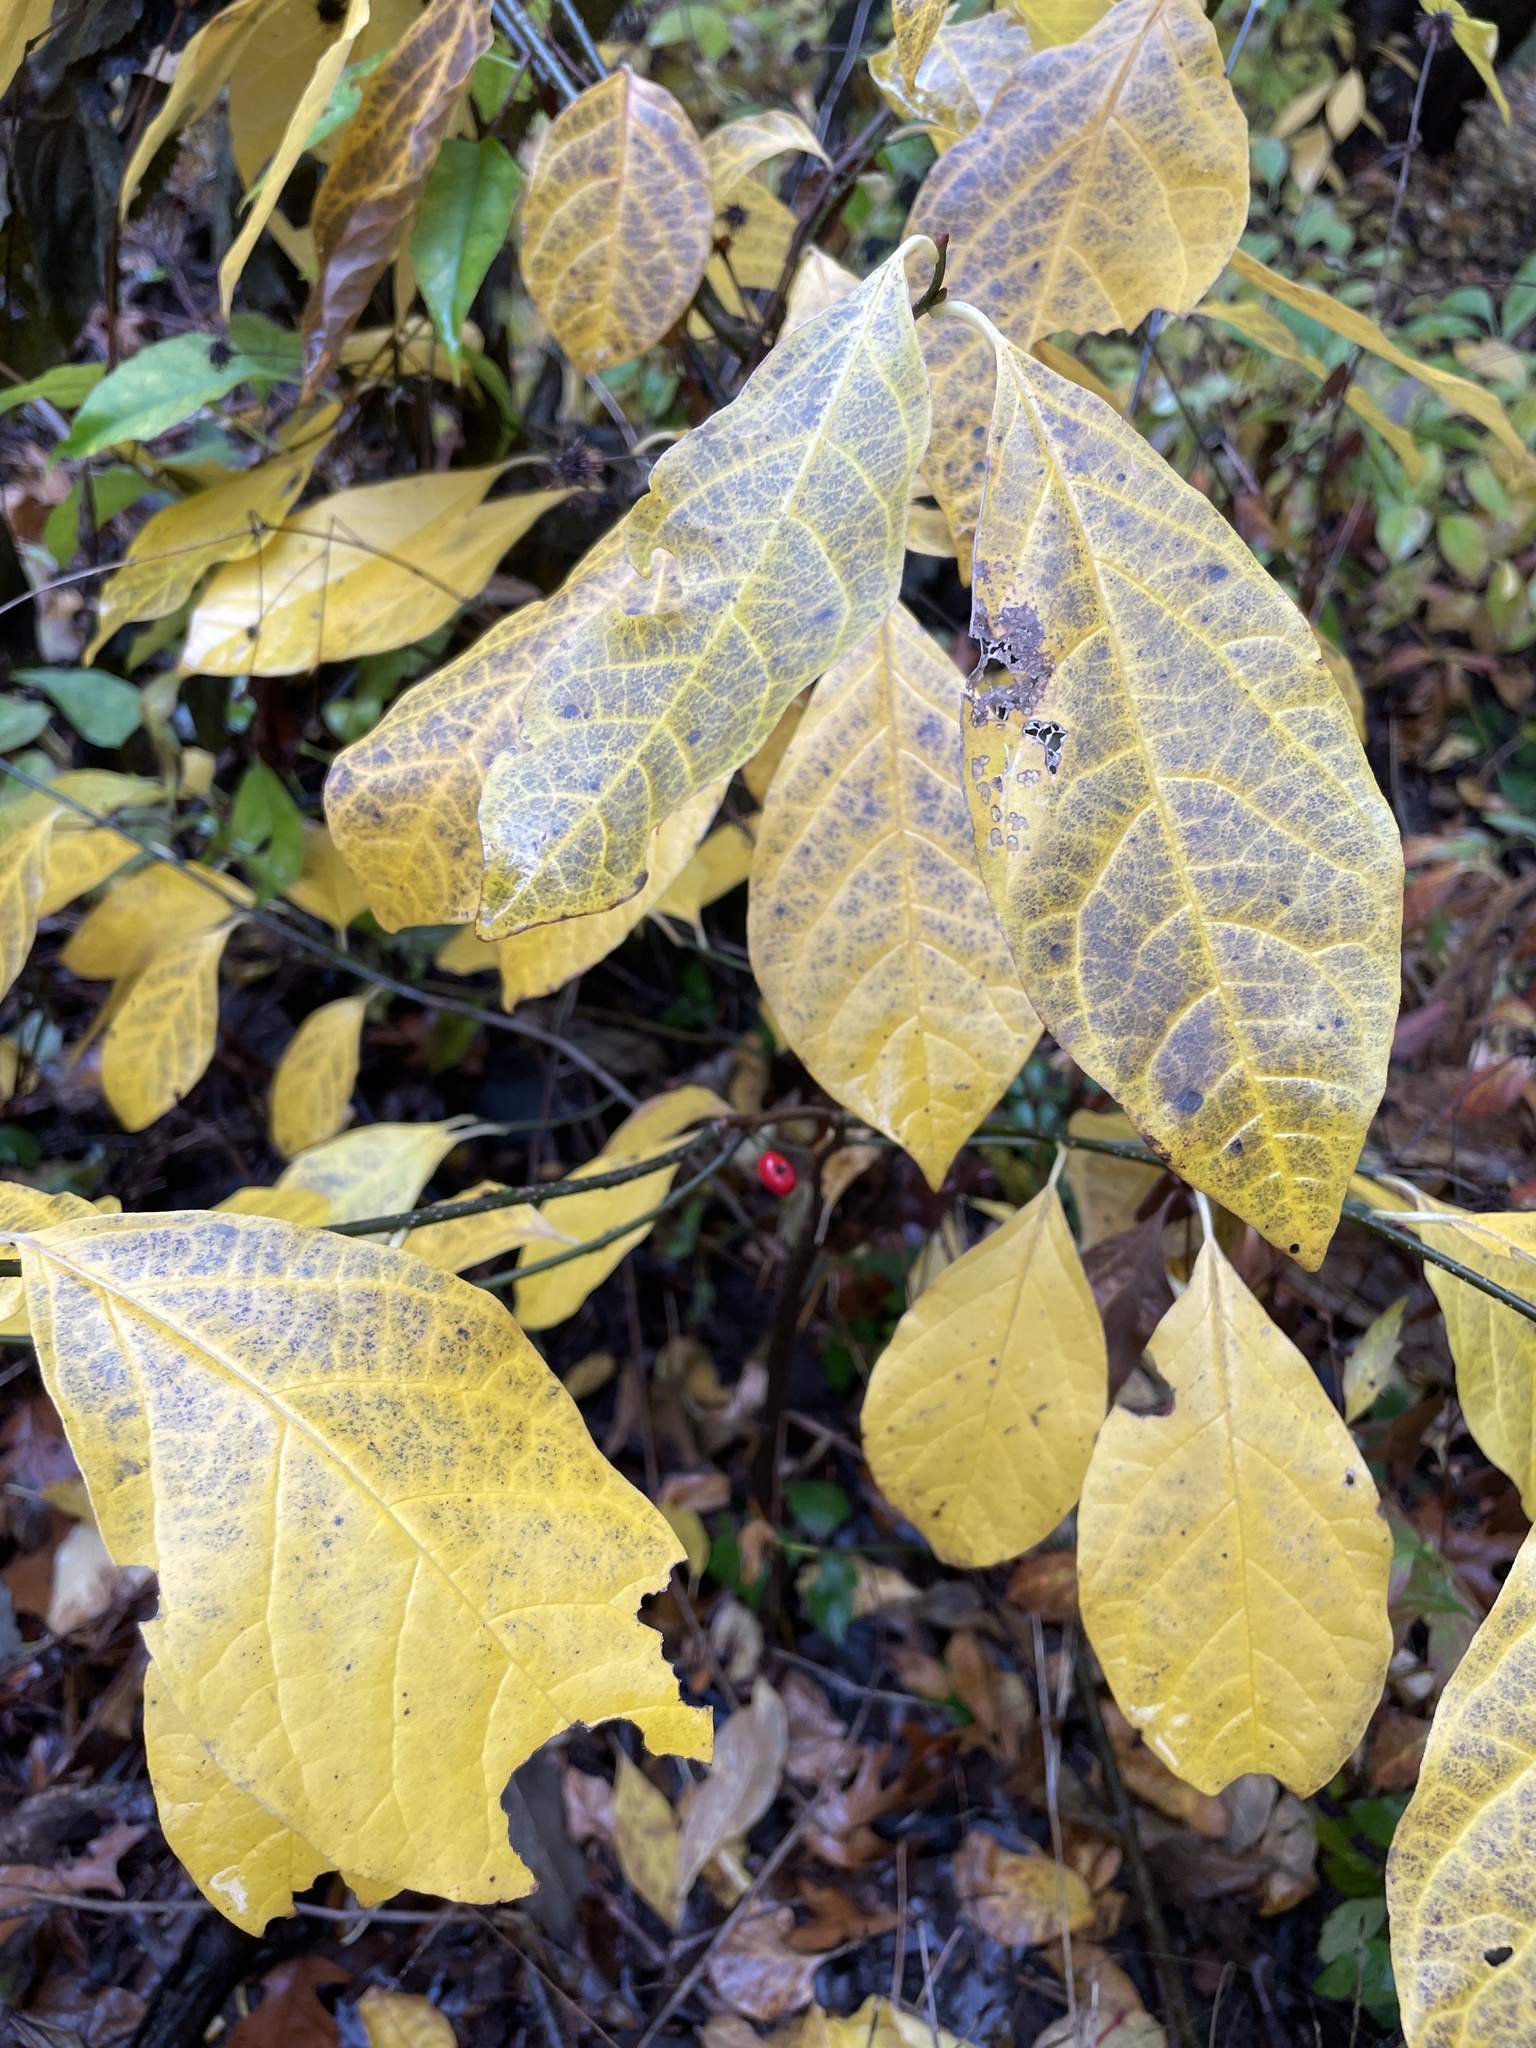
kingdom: Plantae
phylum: Tracheophyta
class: Magnoliopsida
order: Laurales
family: Lauraceae
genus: Lindera
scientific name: Lindera benzoin
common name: Spicebush
